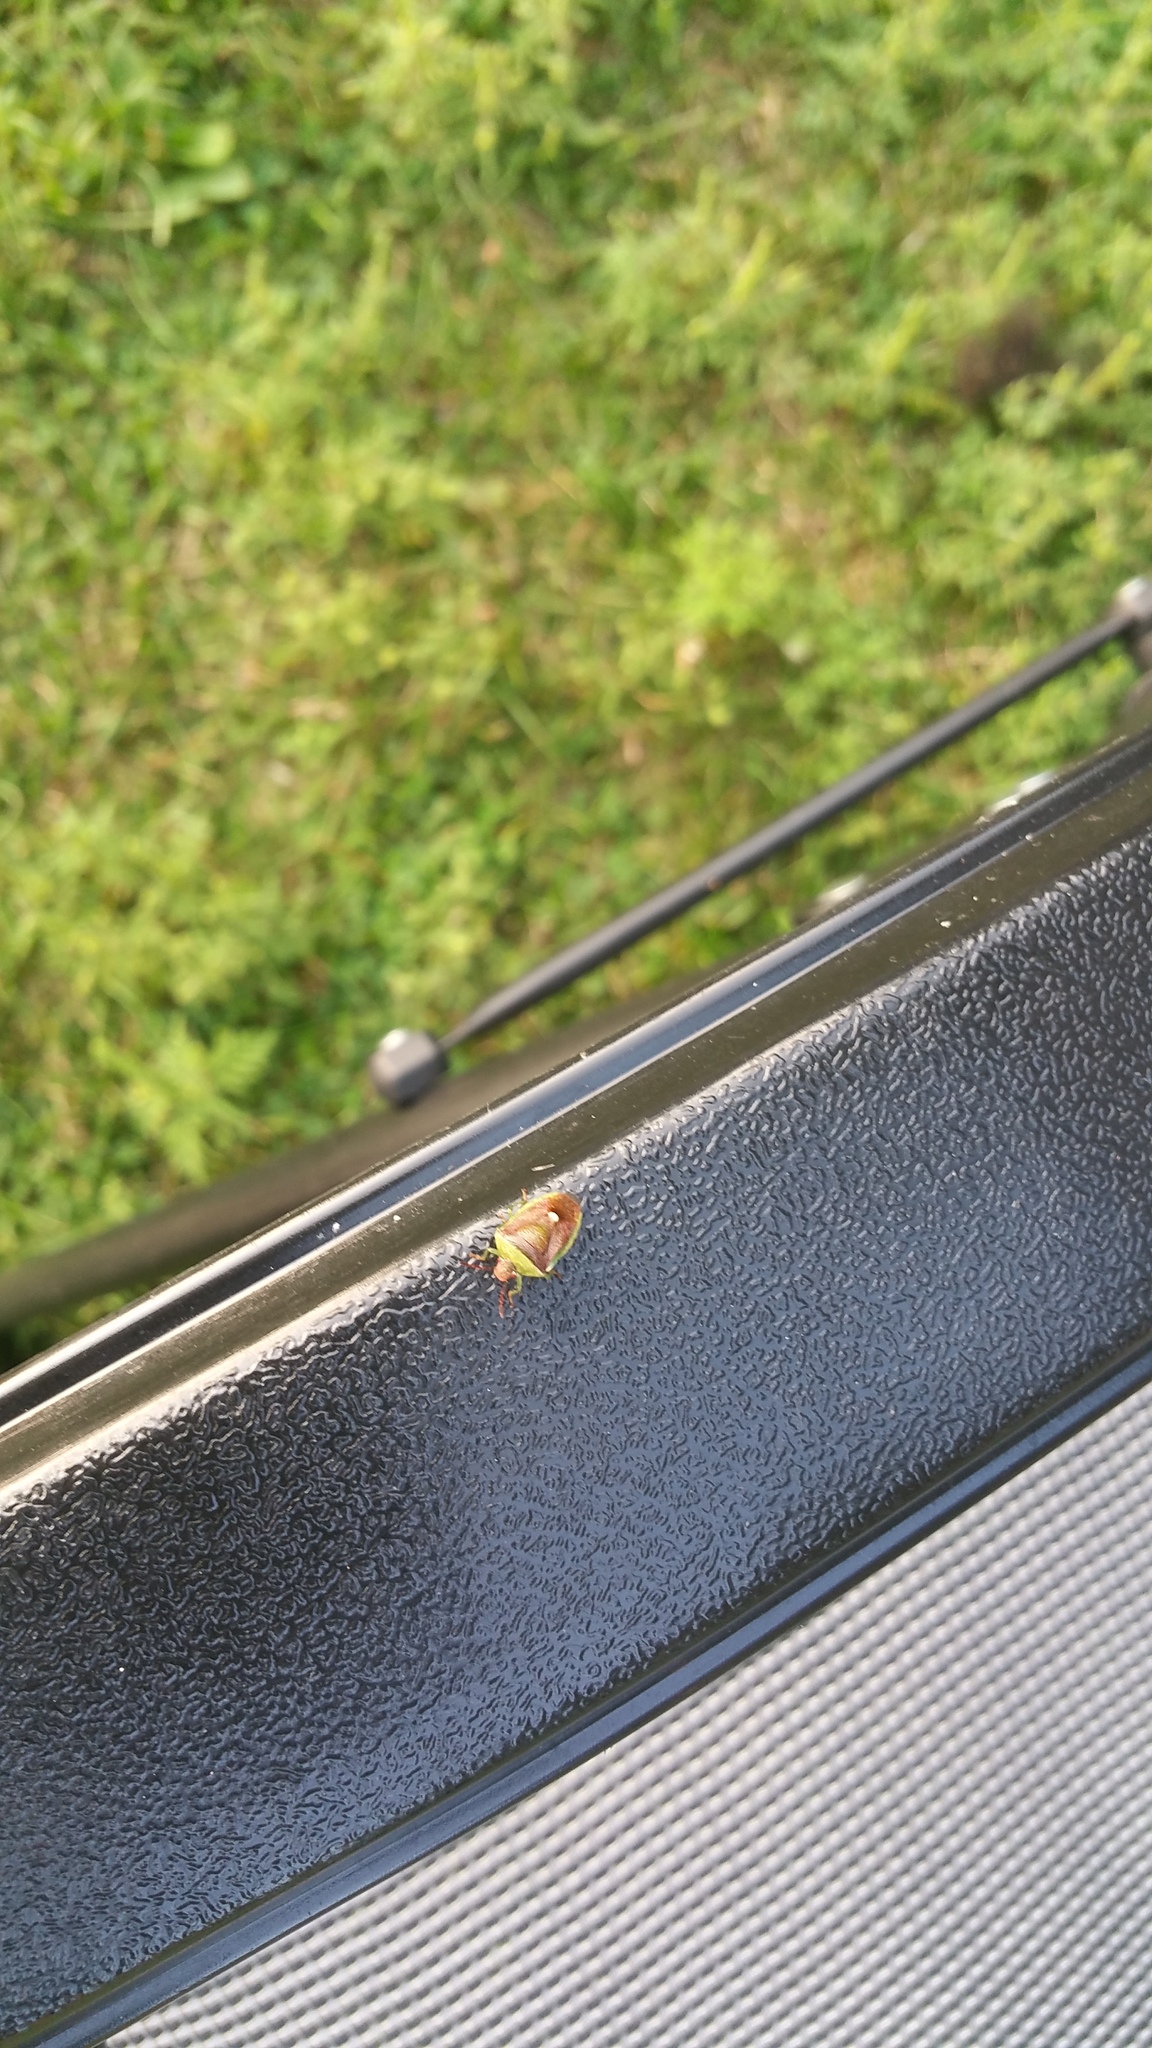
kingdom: Animalia
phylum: Arthropoda
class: Insecta
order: Hemiptera
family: Pentatomidae
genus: Banasa
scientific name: Banasa dimidiata
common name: Green burgundy stink bug
